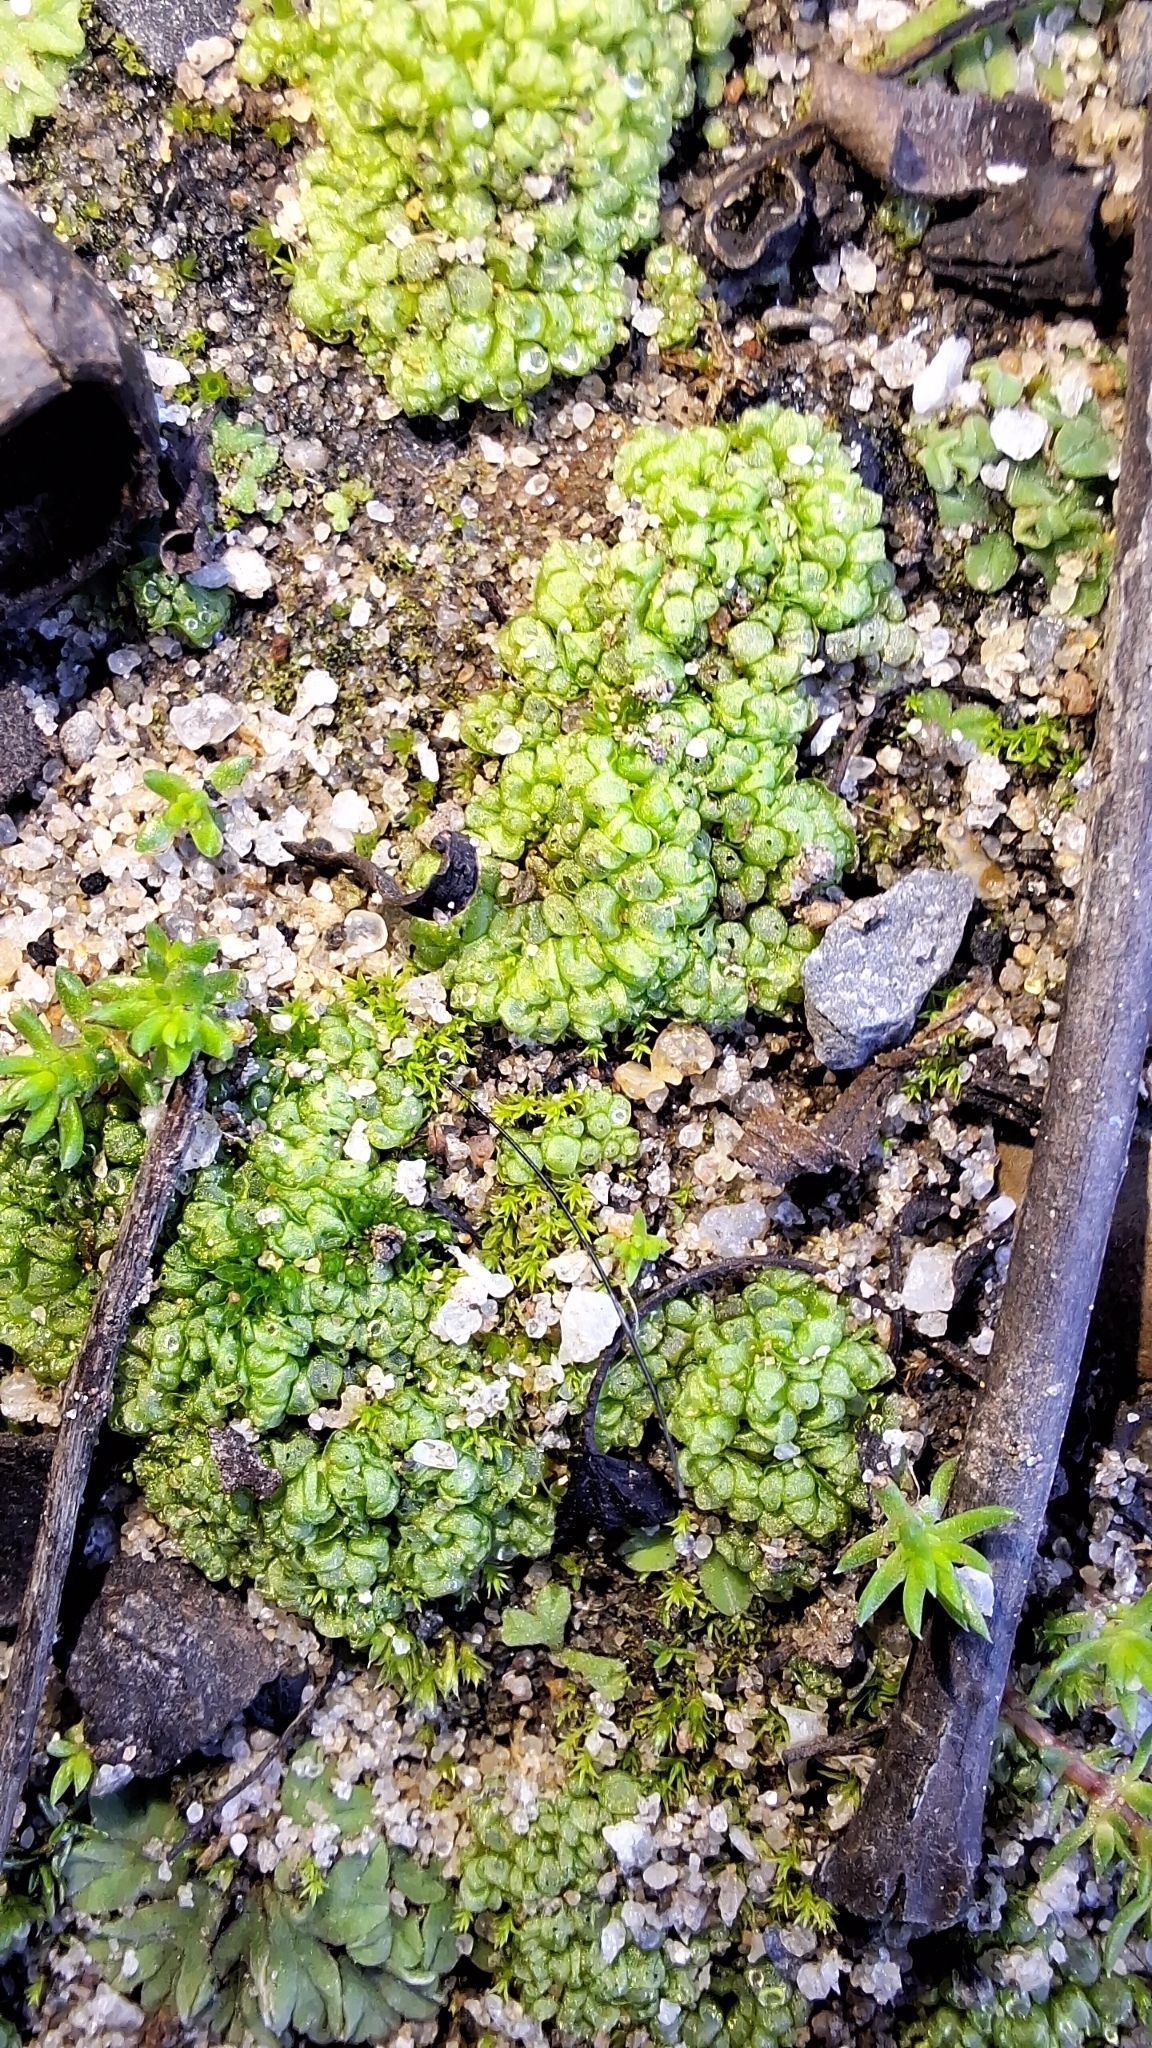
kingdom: Plantae
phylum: Marchantiophyta
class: Marchantiopsida
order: Sphaerocarpales
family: Sphaerocarpaceae
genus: Sphaerocarpos
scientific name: Sphaerocarpos texanus
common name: Texas balloonwort
